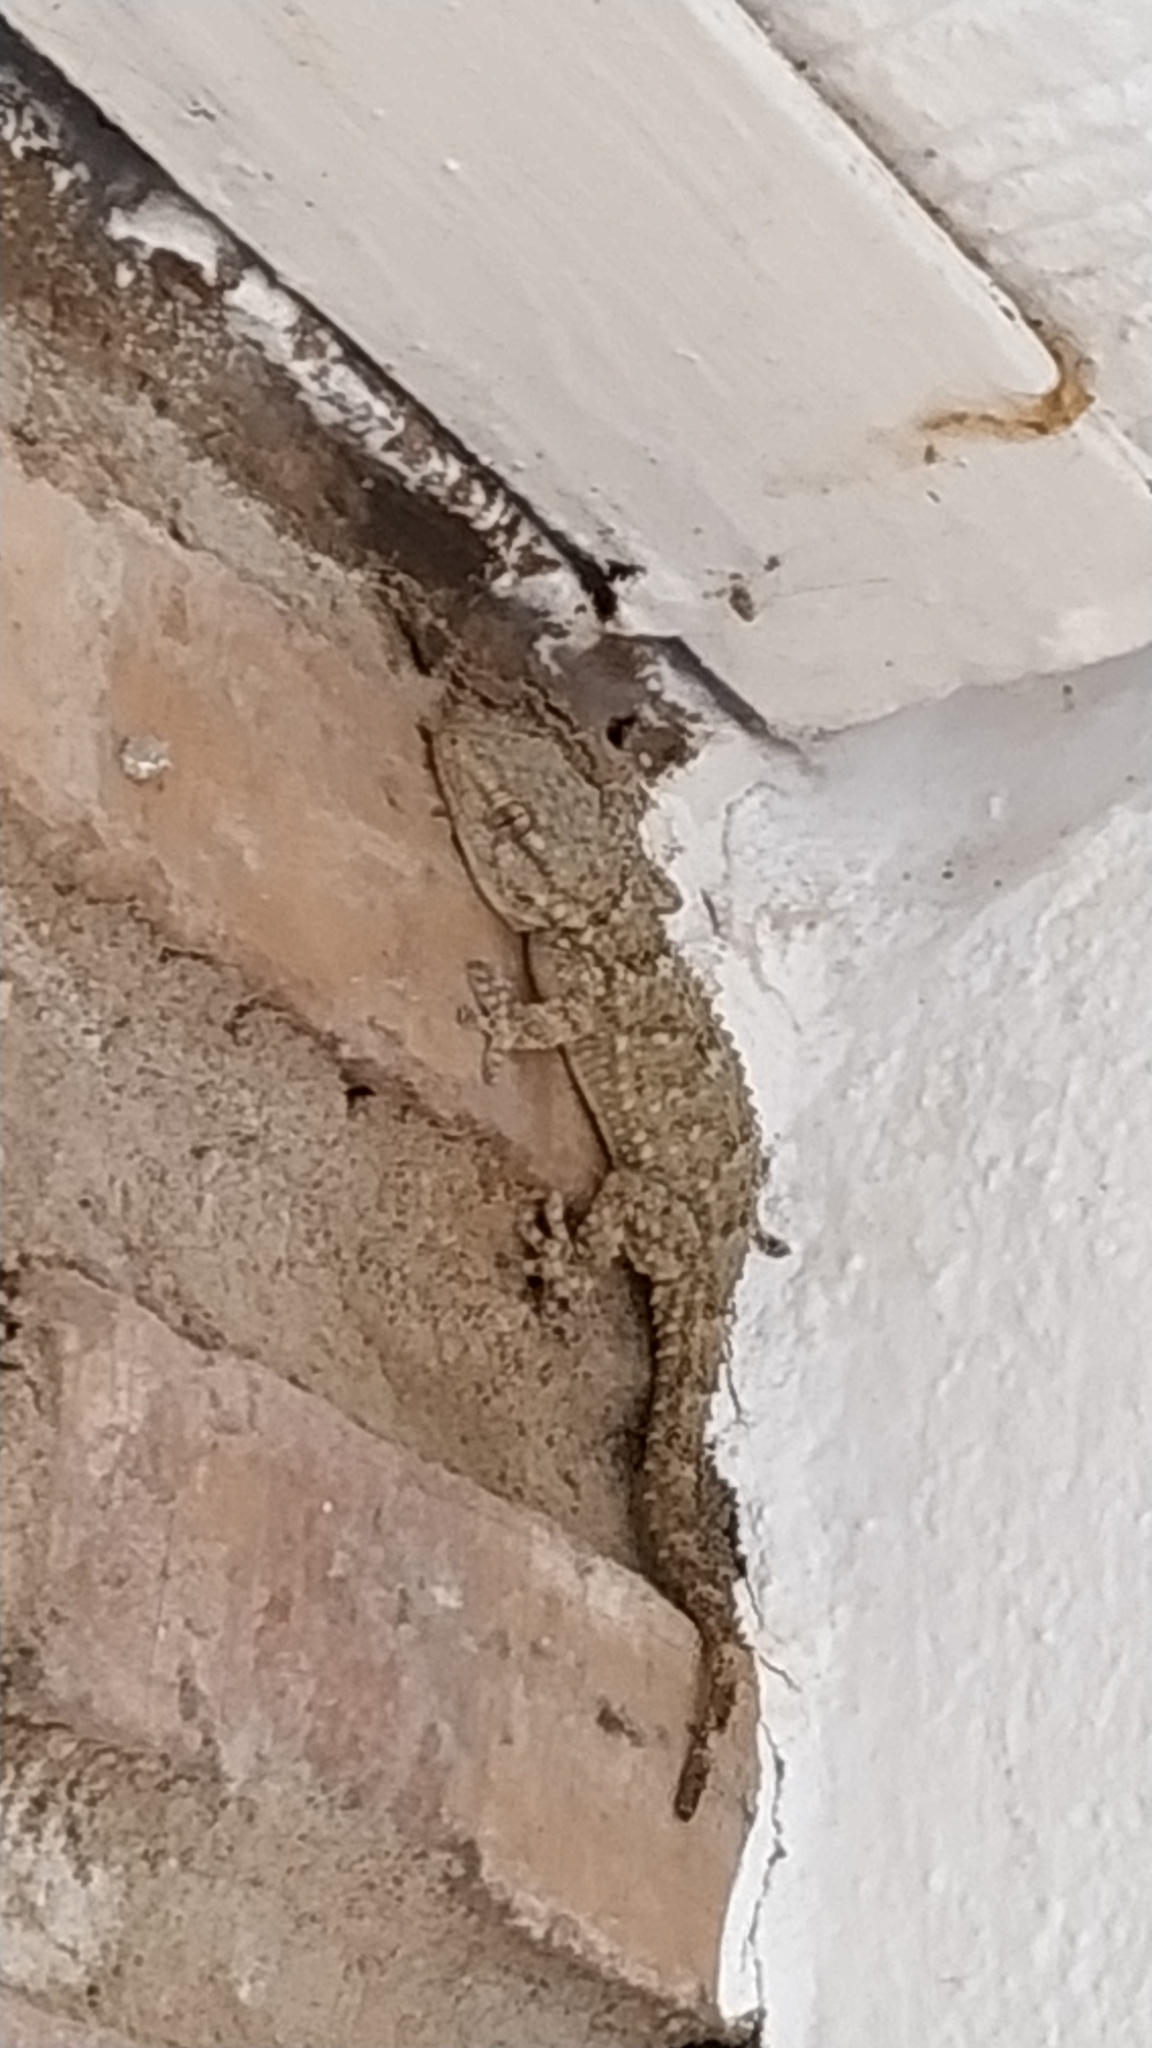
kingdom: Animalia
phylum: Chordata
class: Squamata
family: Phyllodactylidae
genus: Tarentola
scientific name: Tarentola mauritanica
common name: Moorish gecko
